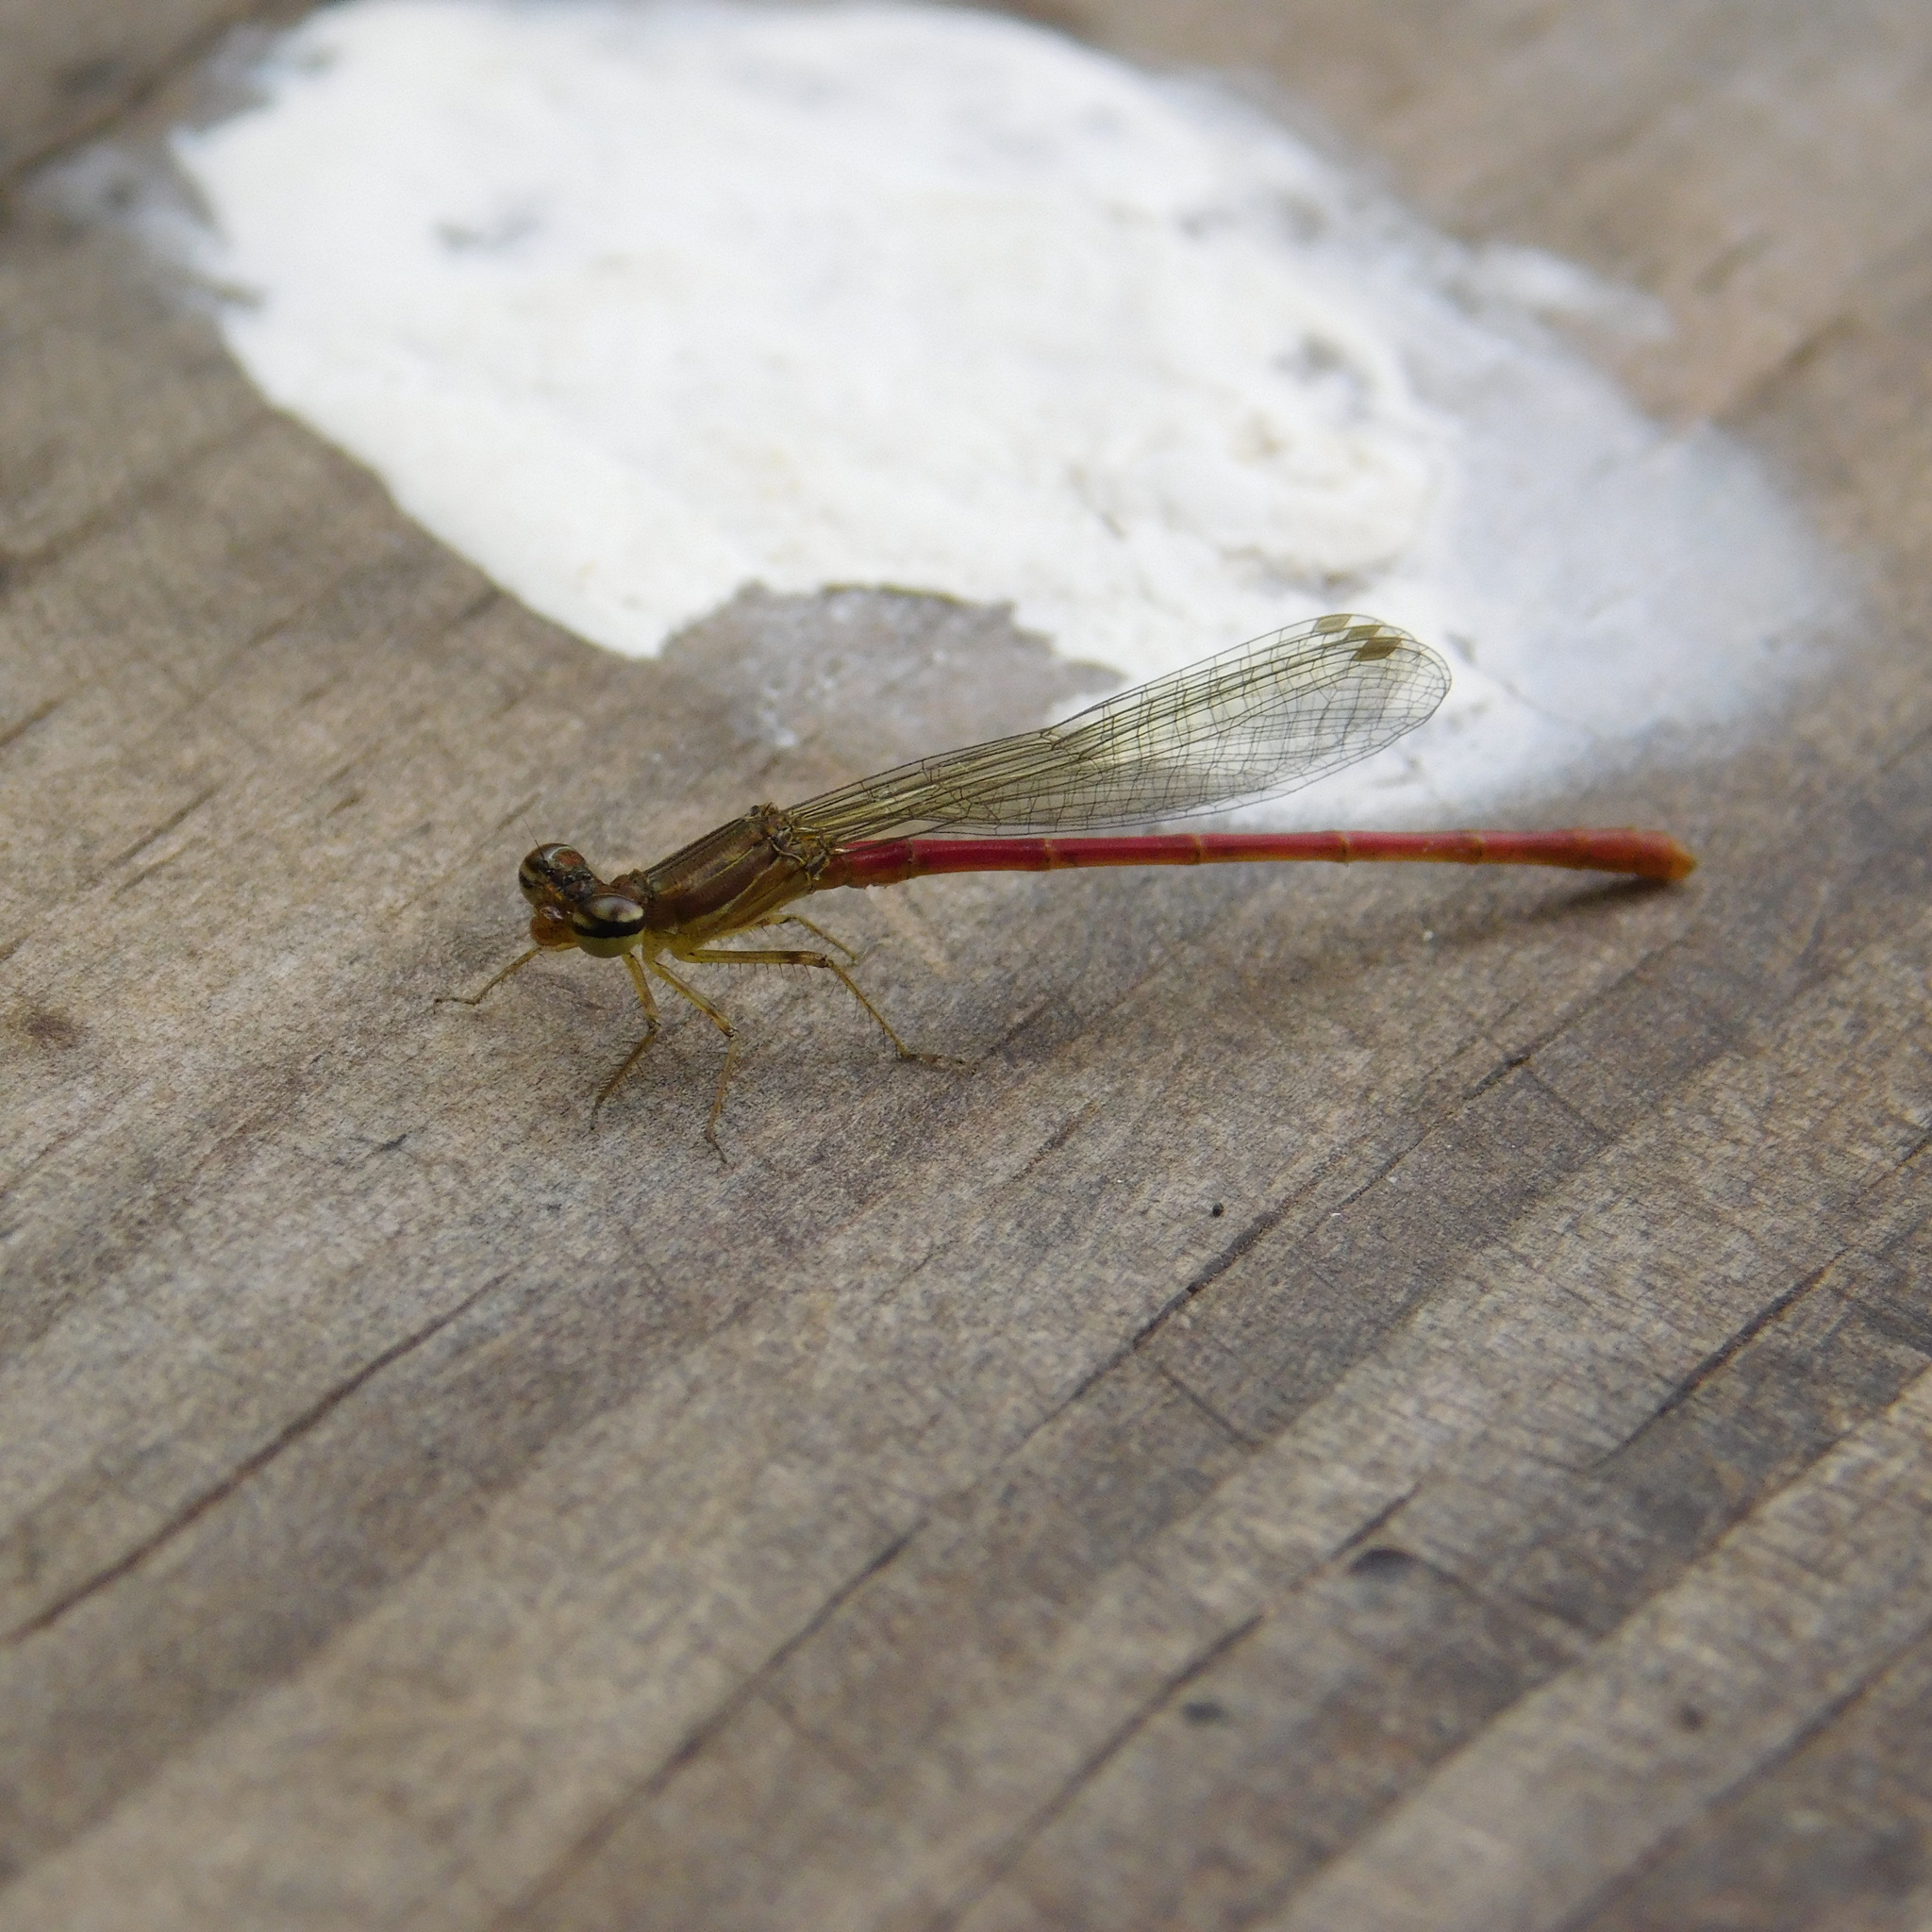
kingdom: Animalia
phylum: Arthropoda
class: Insecta
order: Odonata
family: Coenagrionidae
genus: Telebasis
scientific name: Telebasis willinki
